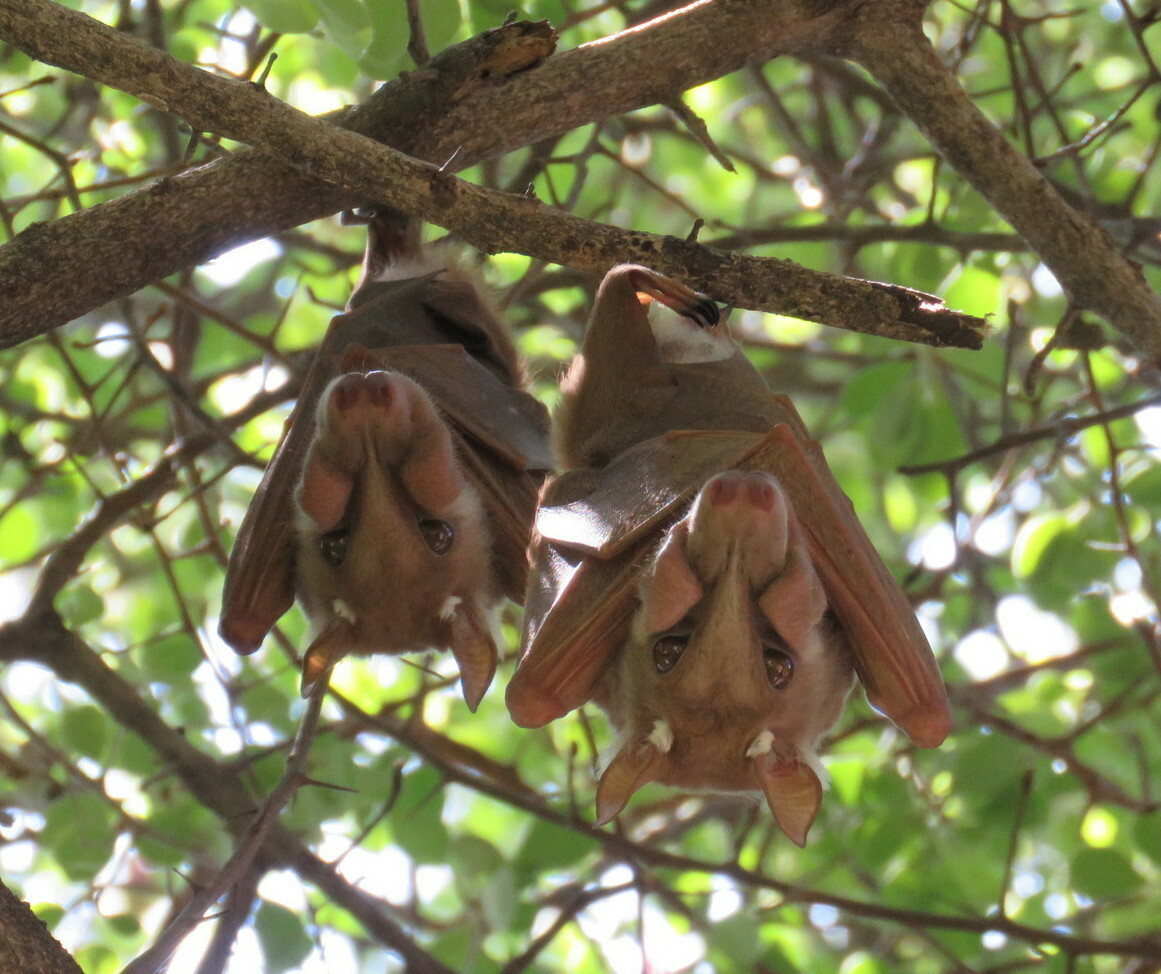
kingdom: Animalia
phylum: Chordata
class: Mammalia
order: Chiroptera
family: Pteropodidae
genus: Epomophorus
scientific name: Epomophorus angolensis
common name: Angolan epauletted fruit bat
